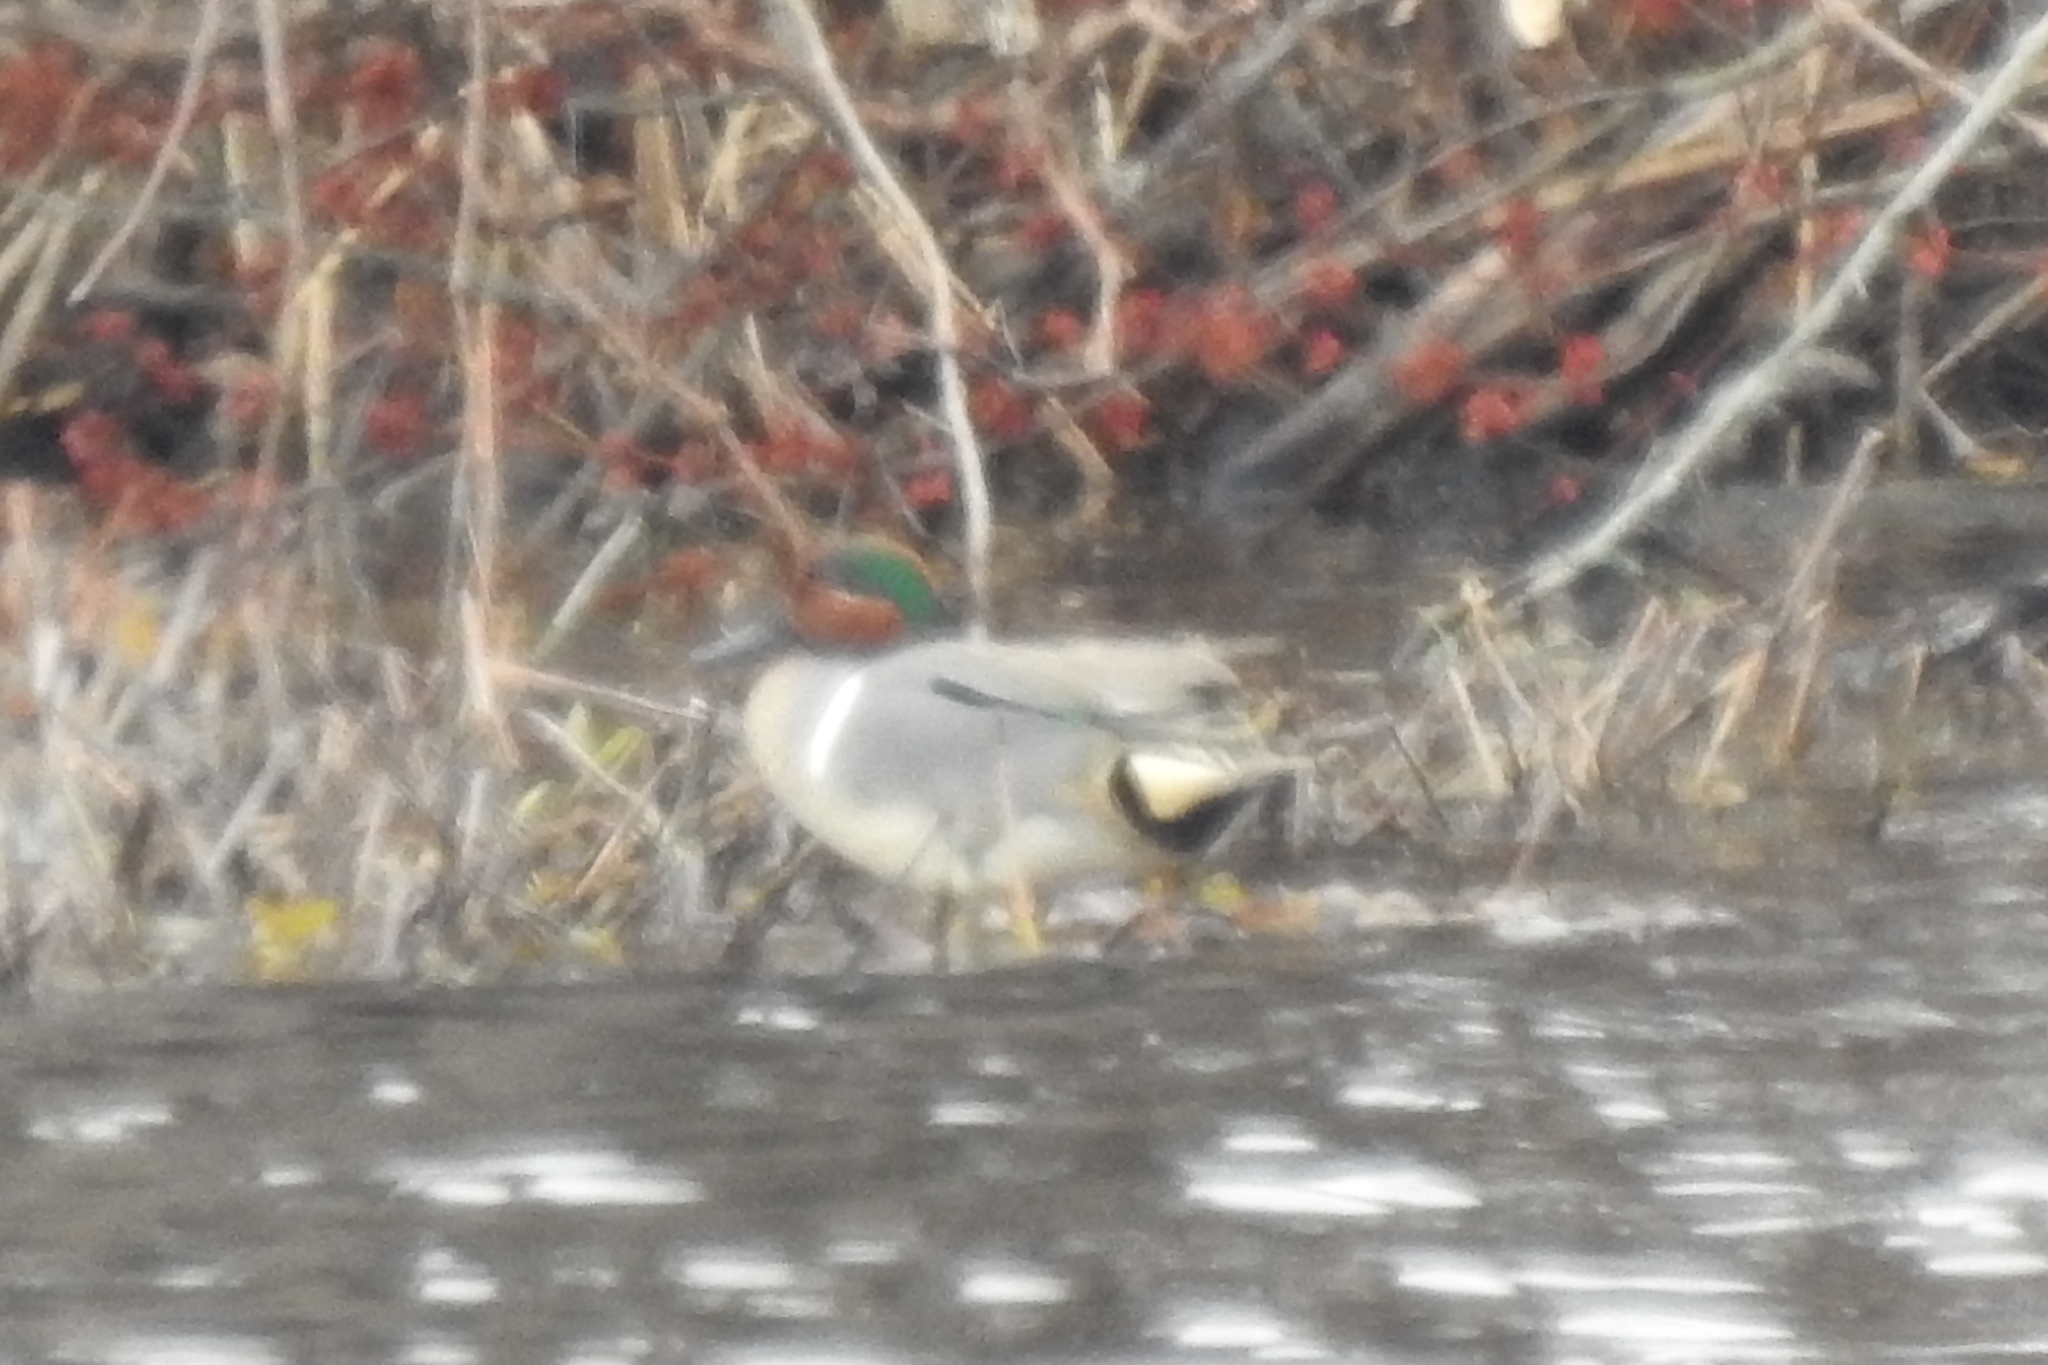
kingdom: Animalia
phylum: Chordata
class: Aves
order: Anseriformes
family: Anatidae
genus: Anas
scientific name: Anas crecca
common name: Eurasian teal
